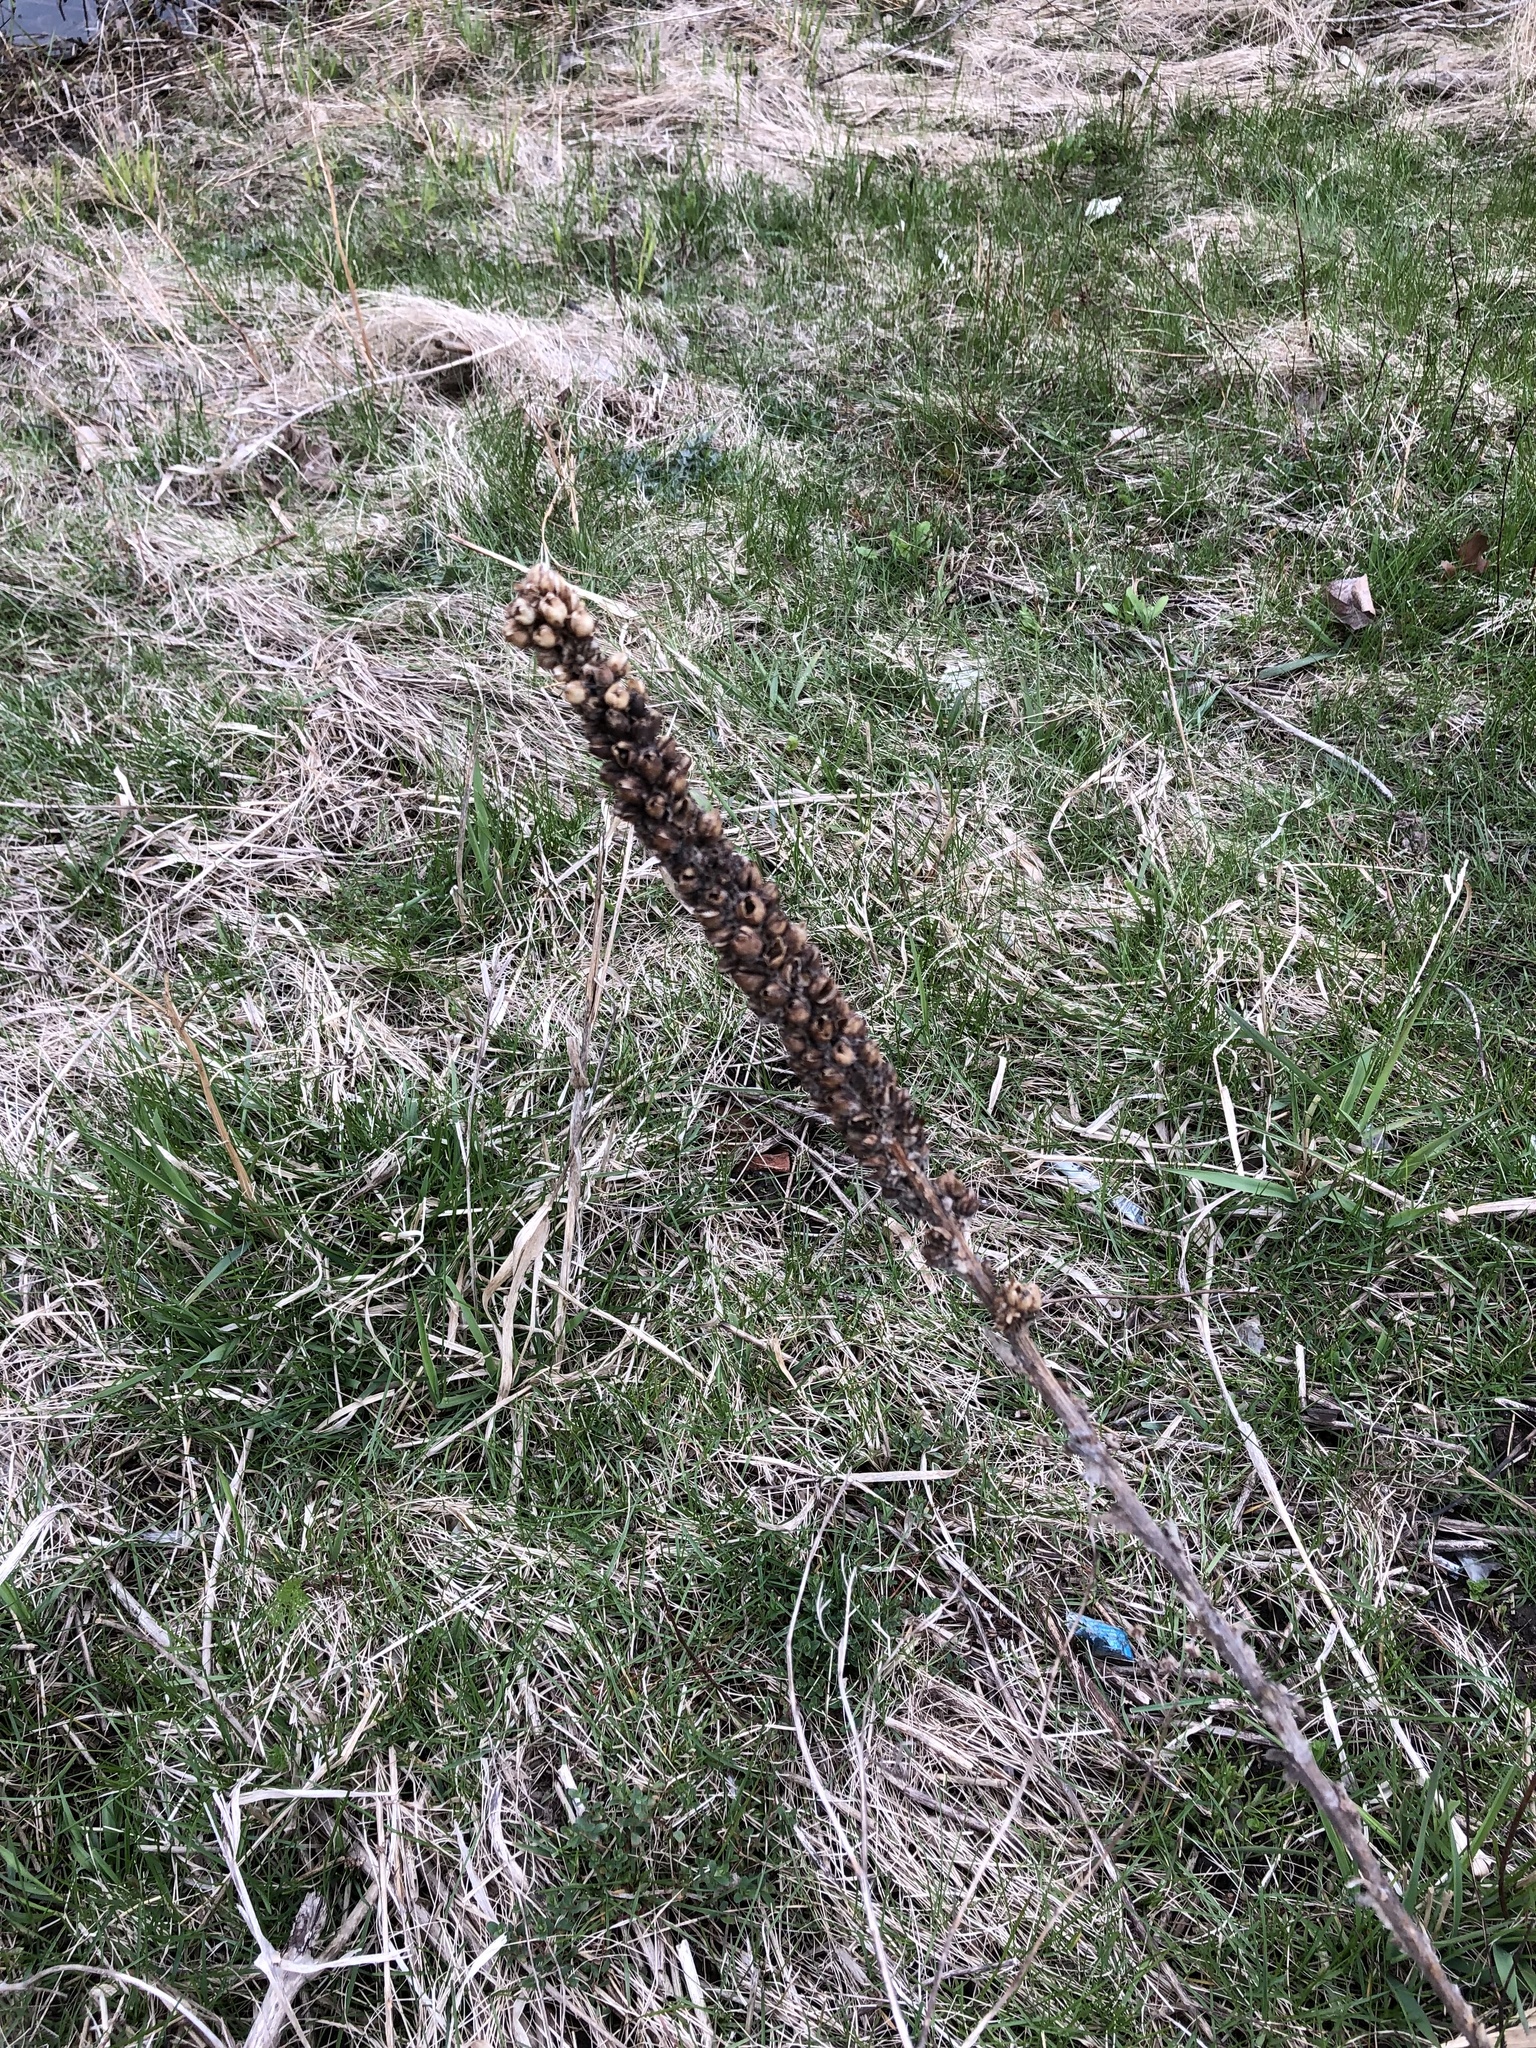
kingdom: Plantae
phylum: Tracheophyta
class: Magnoliopsida
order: Lamiales
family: Scrophulariaceae
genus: Verbascum
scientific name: Verbascum thapsus
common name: Common mullein
